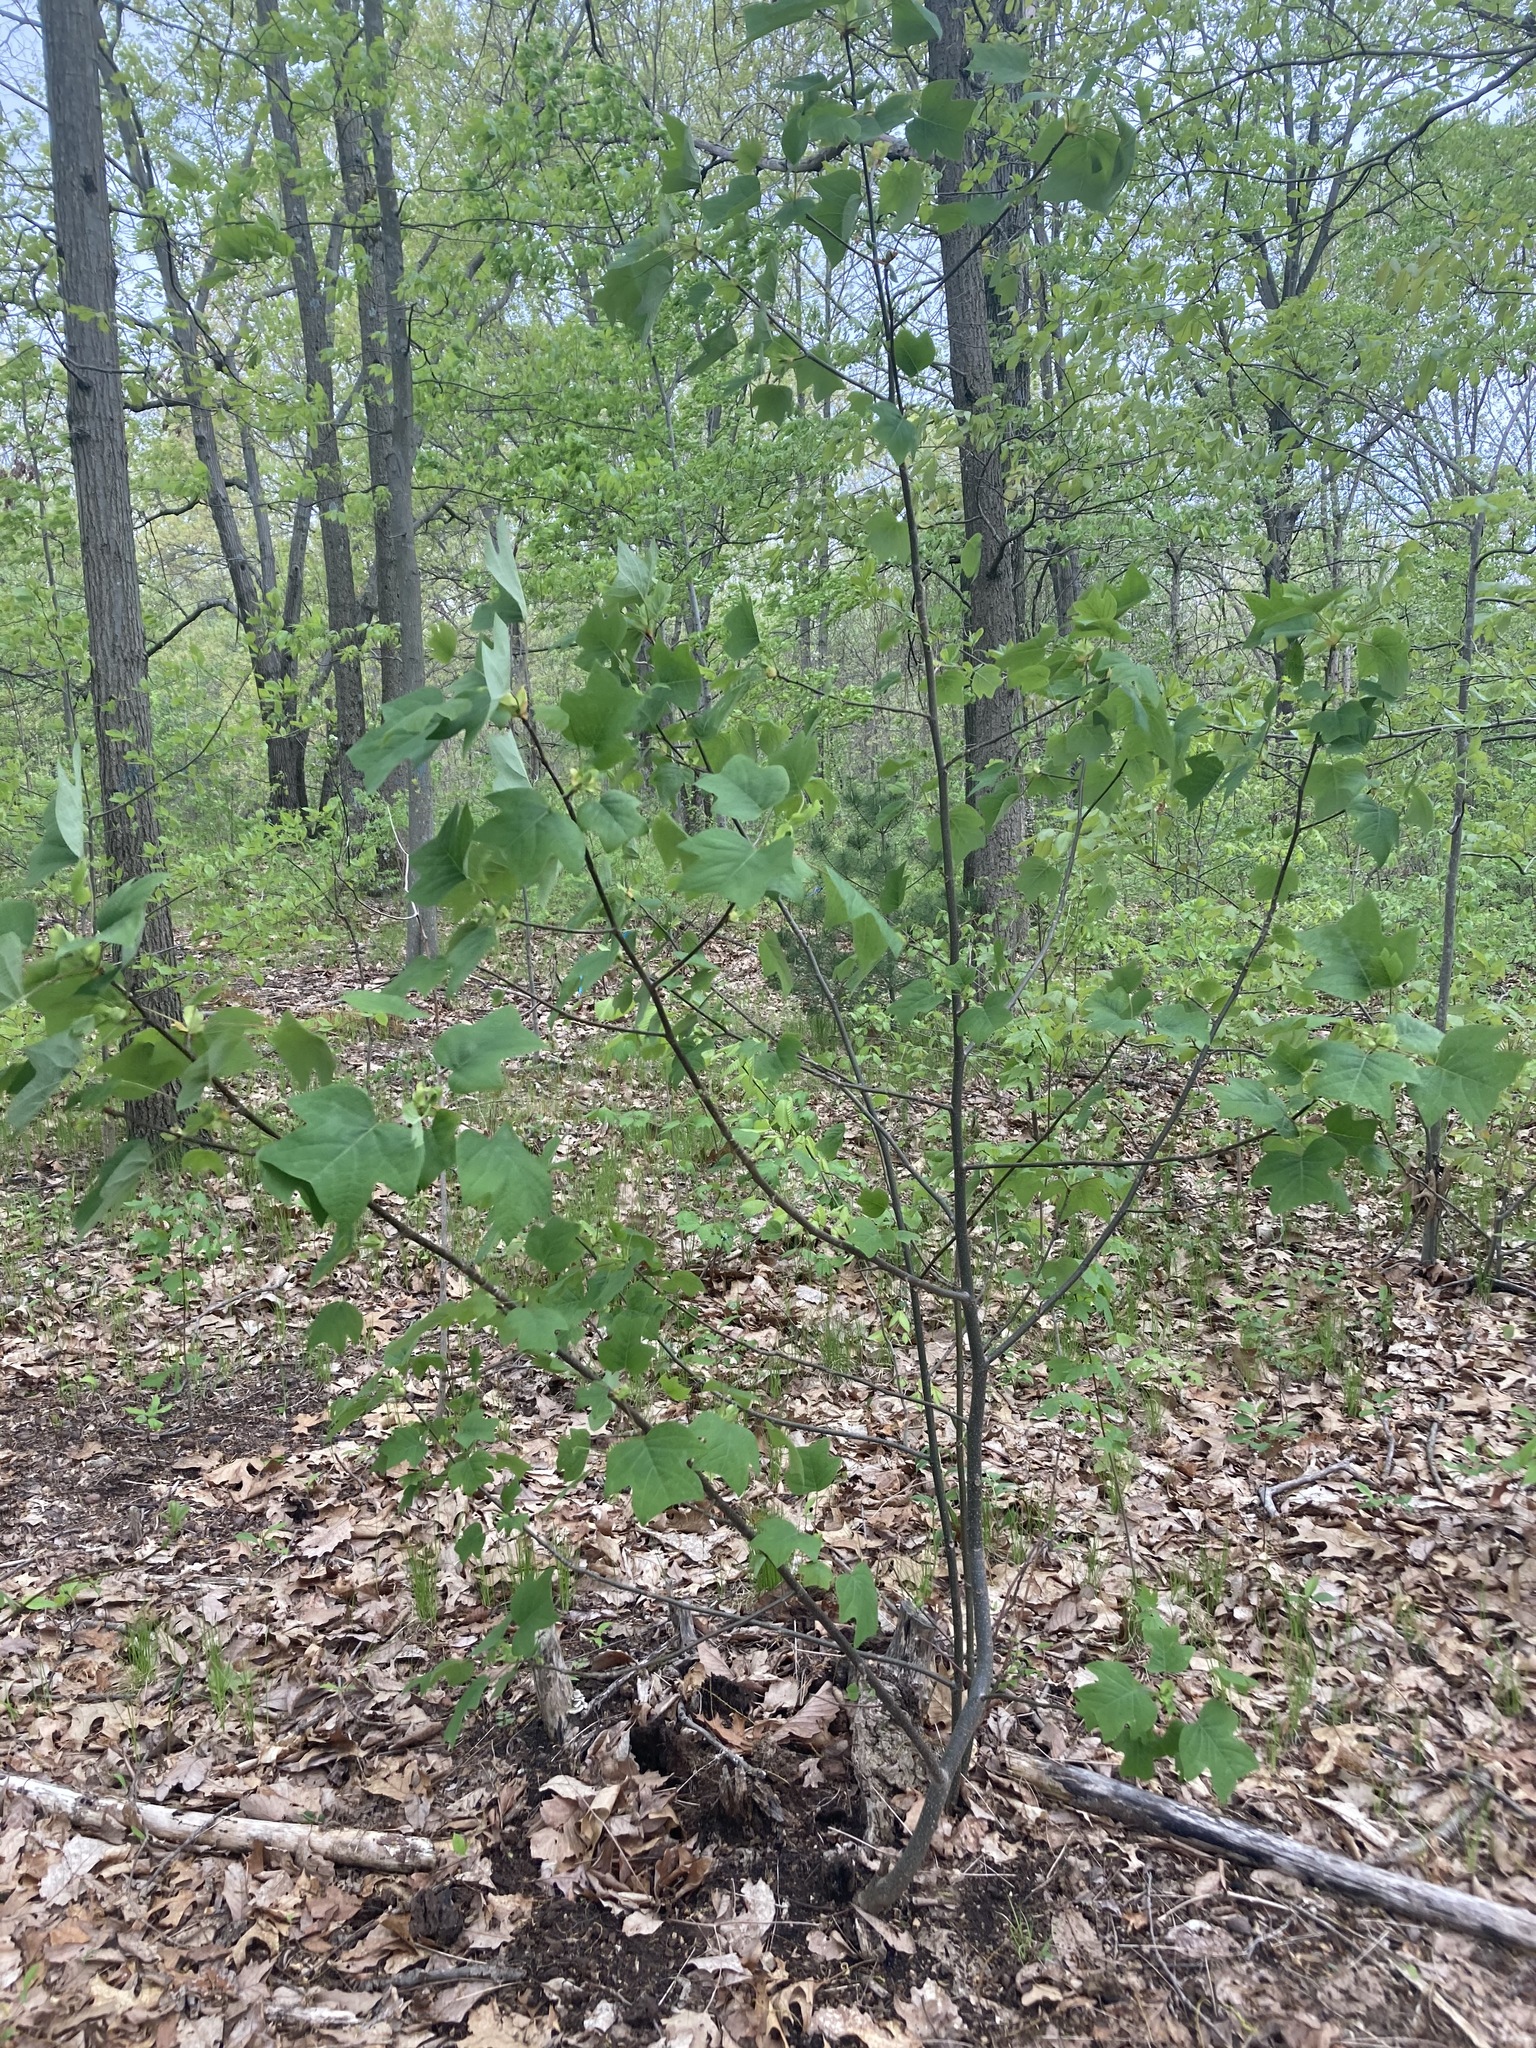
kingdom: Plantae
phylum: Tracheophyta
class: Magnoliopsida
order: Magnoliales
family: Magnoliaceae
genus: Liriodendron
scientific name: Liriodendron tulipifera
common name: Tulip tree
